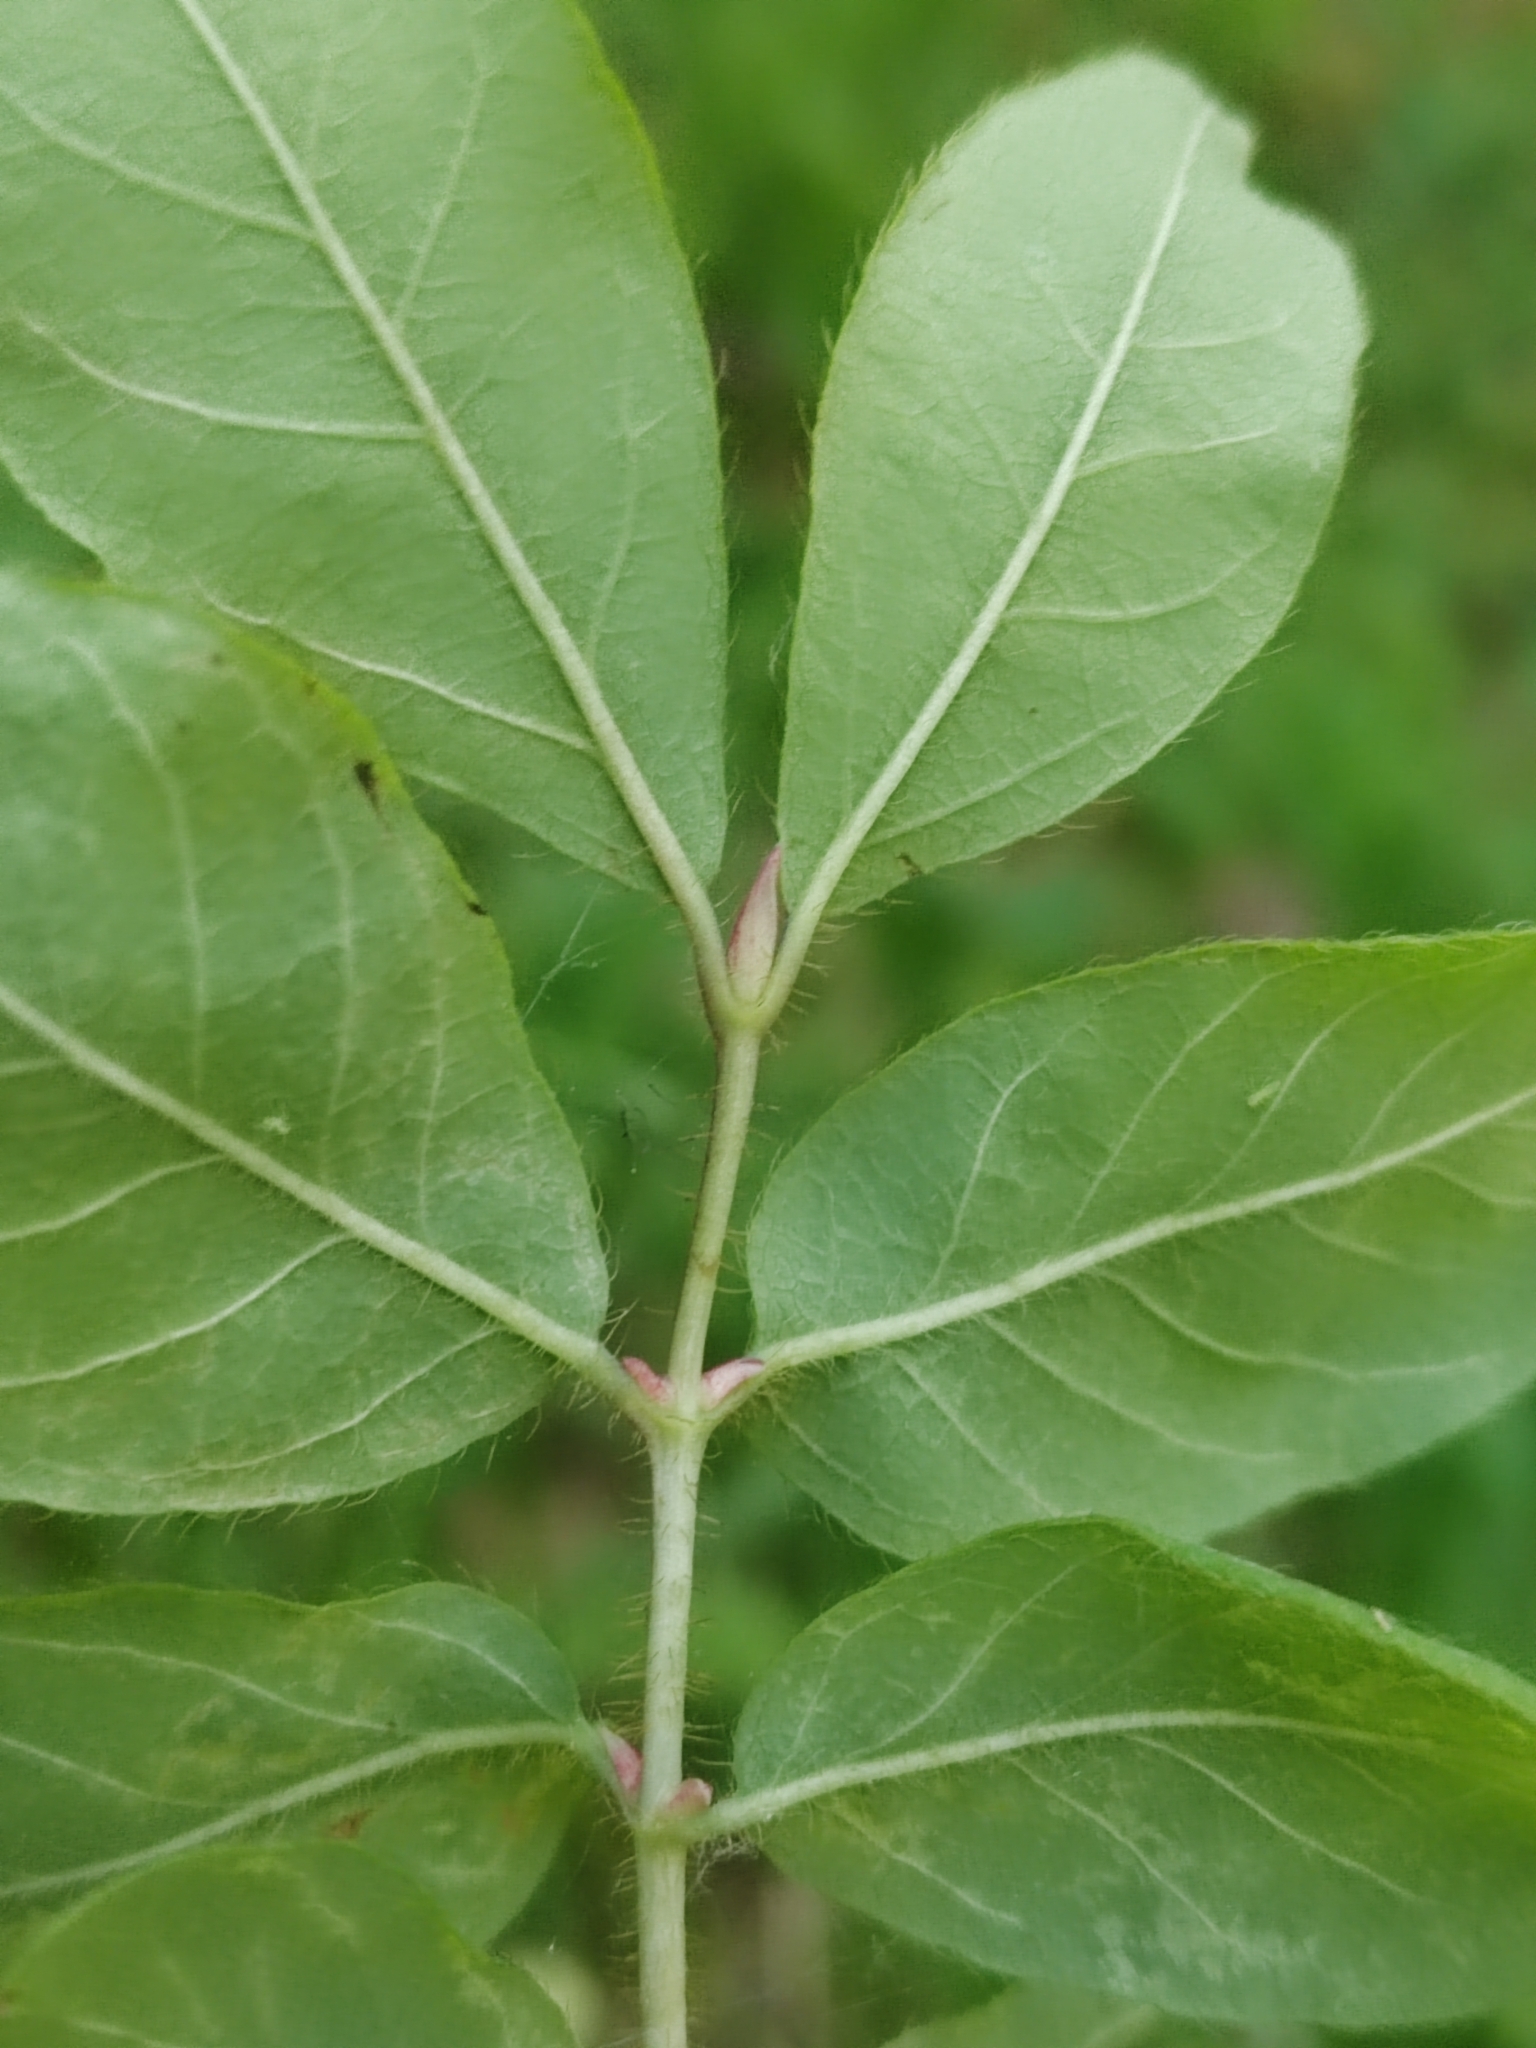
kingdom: Plantae
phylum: Tracheophyta
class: Magnoliopsida
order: Dipsacales
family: Caprifoliaceae
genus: Lonicera
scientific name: Lonicera caerulea
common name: Blue honeysuckle
